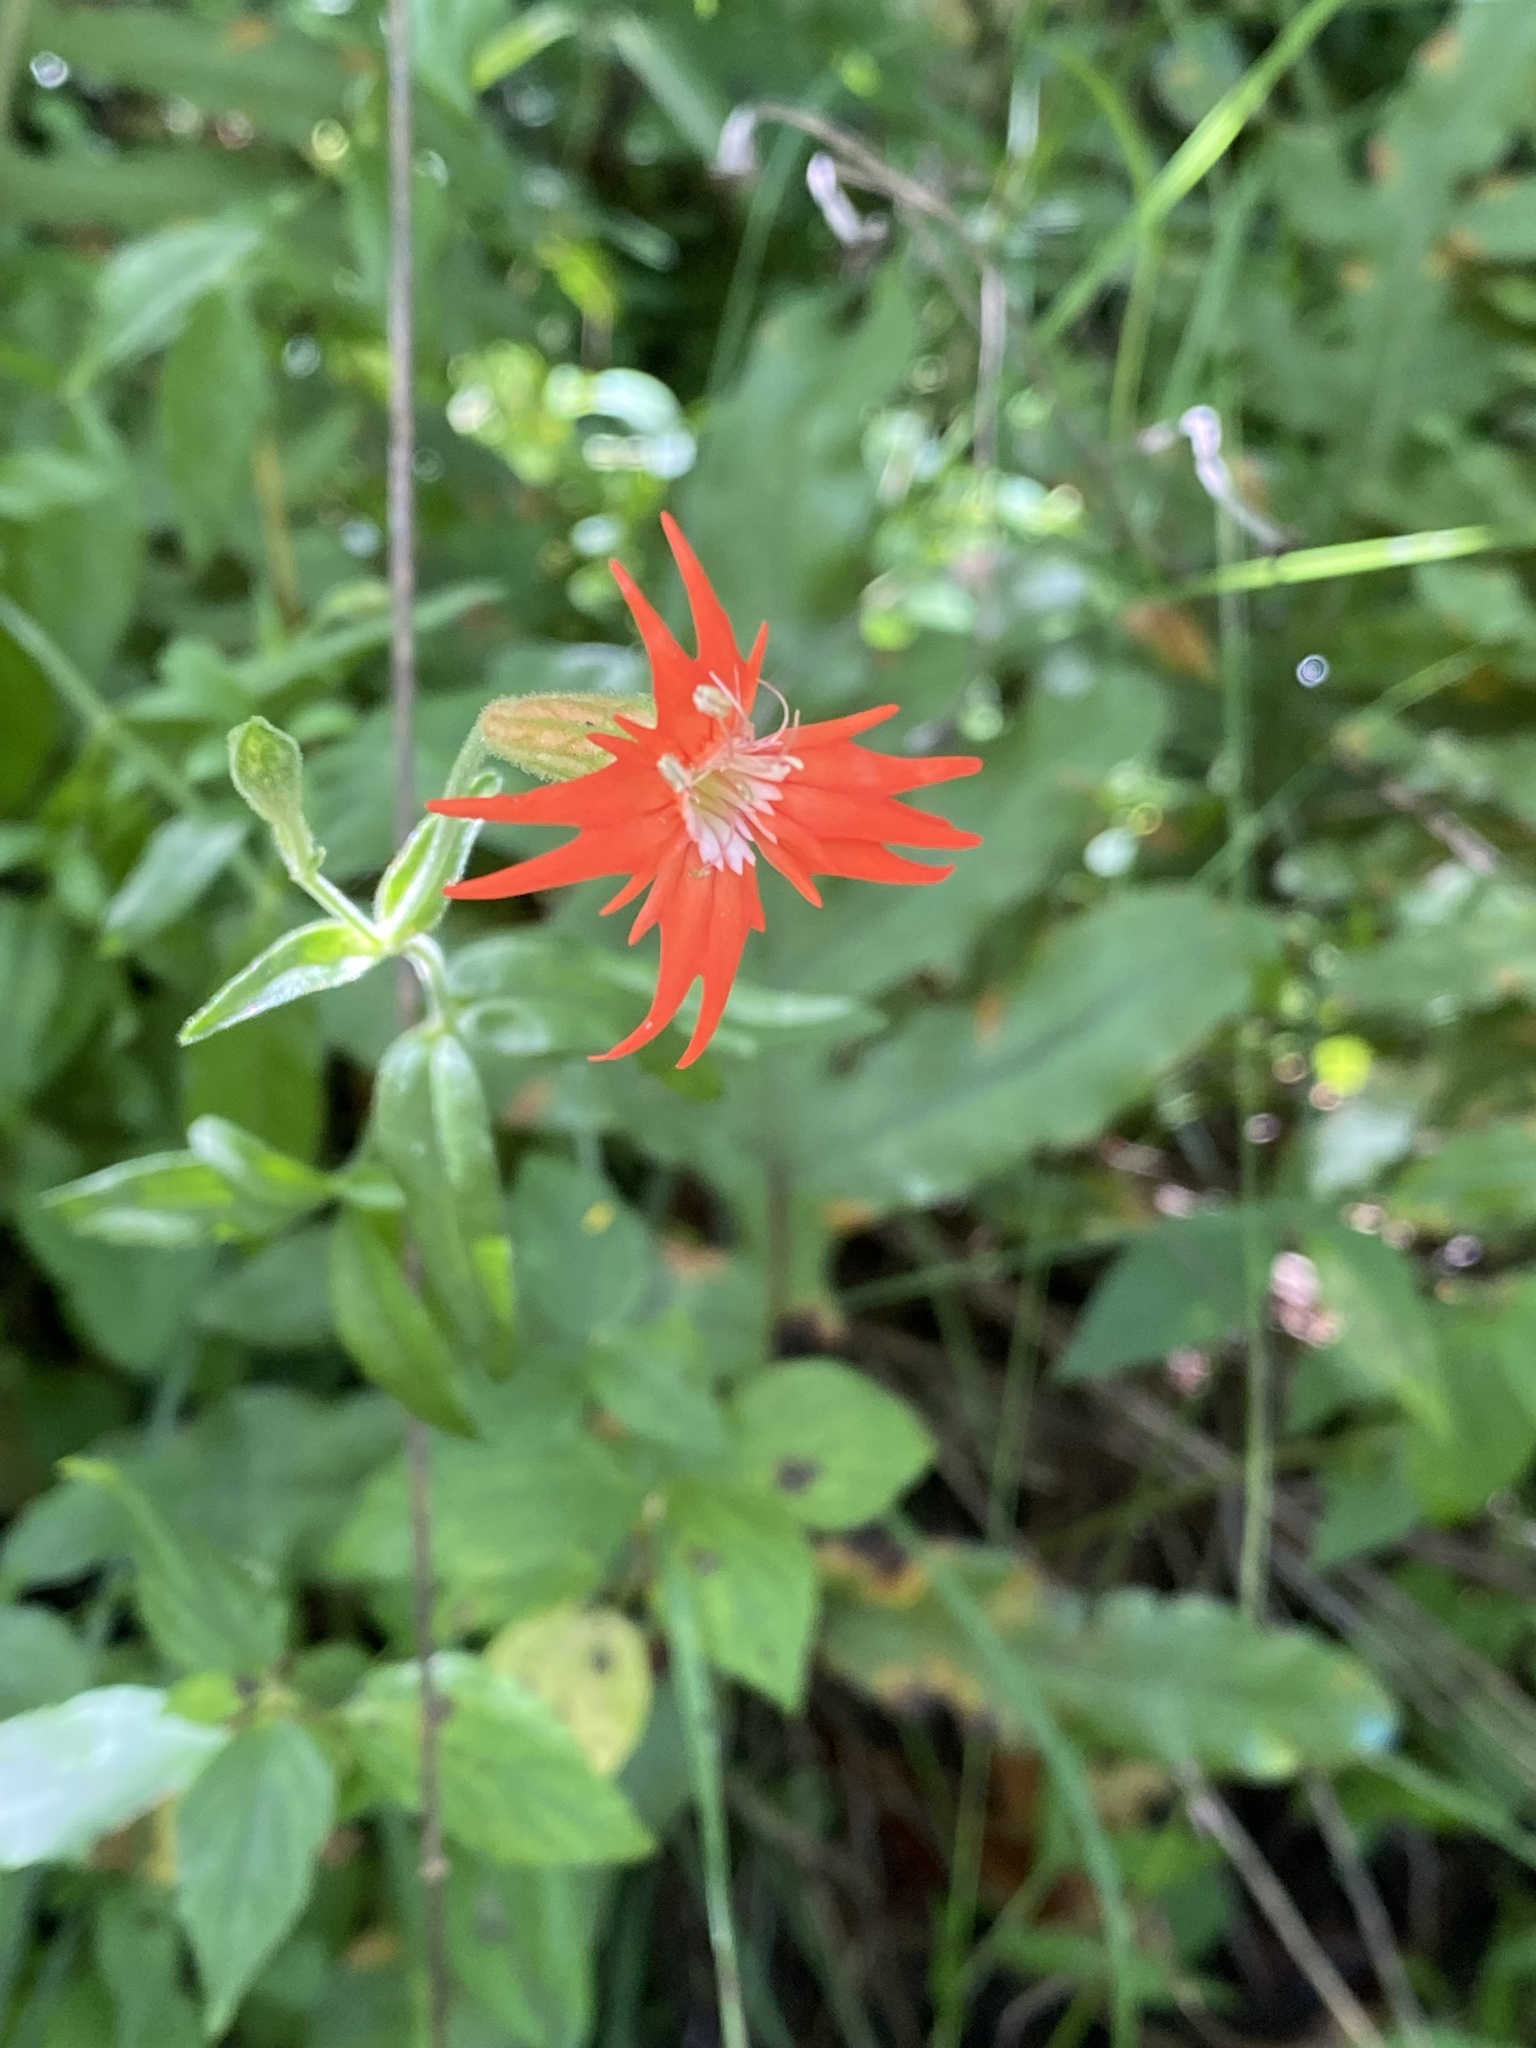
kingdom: Plantae
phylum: Tracheophyta
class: Magnoliopsida
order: Caryophyllales
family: Caryophyllaceae
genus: Silene
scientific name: Silene laciniata
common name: Indian-pink
